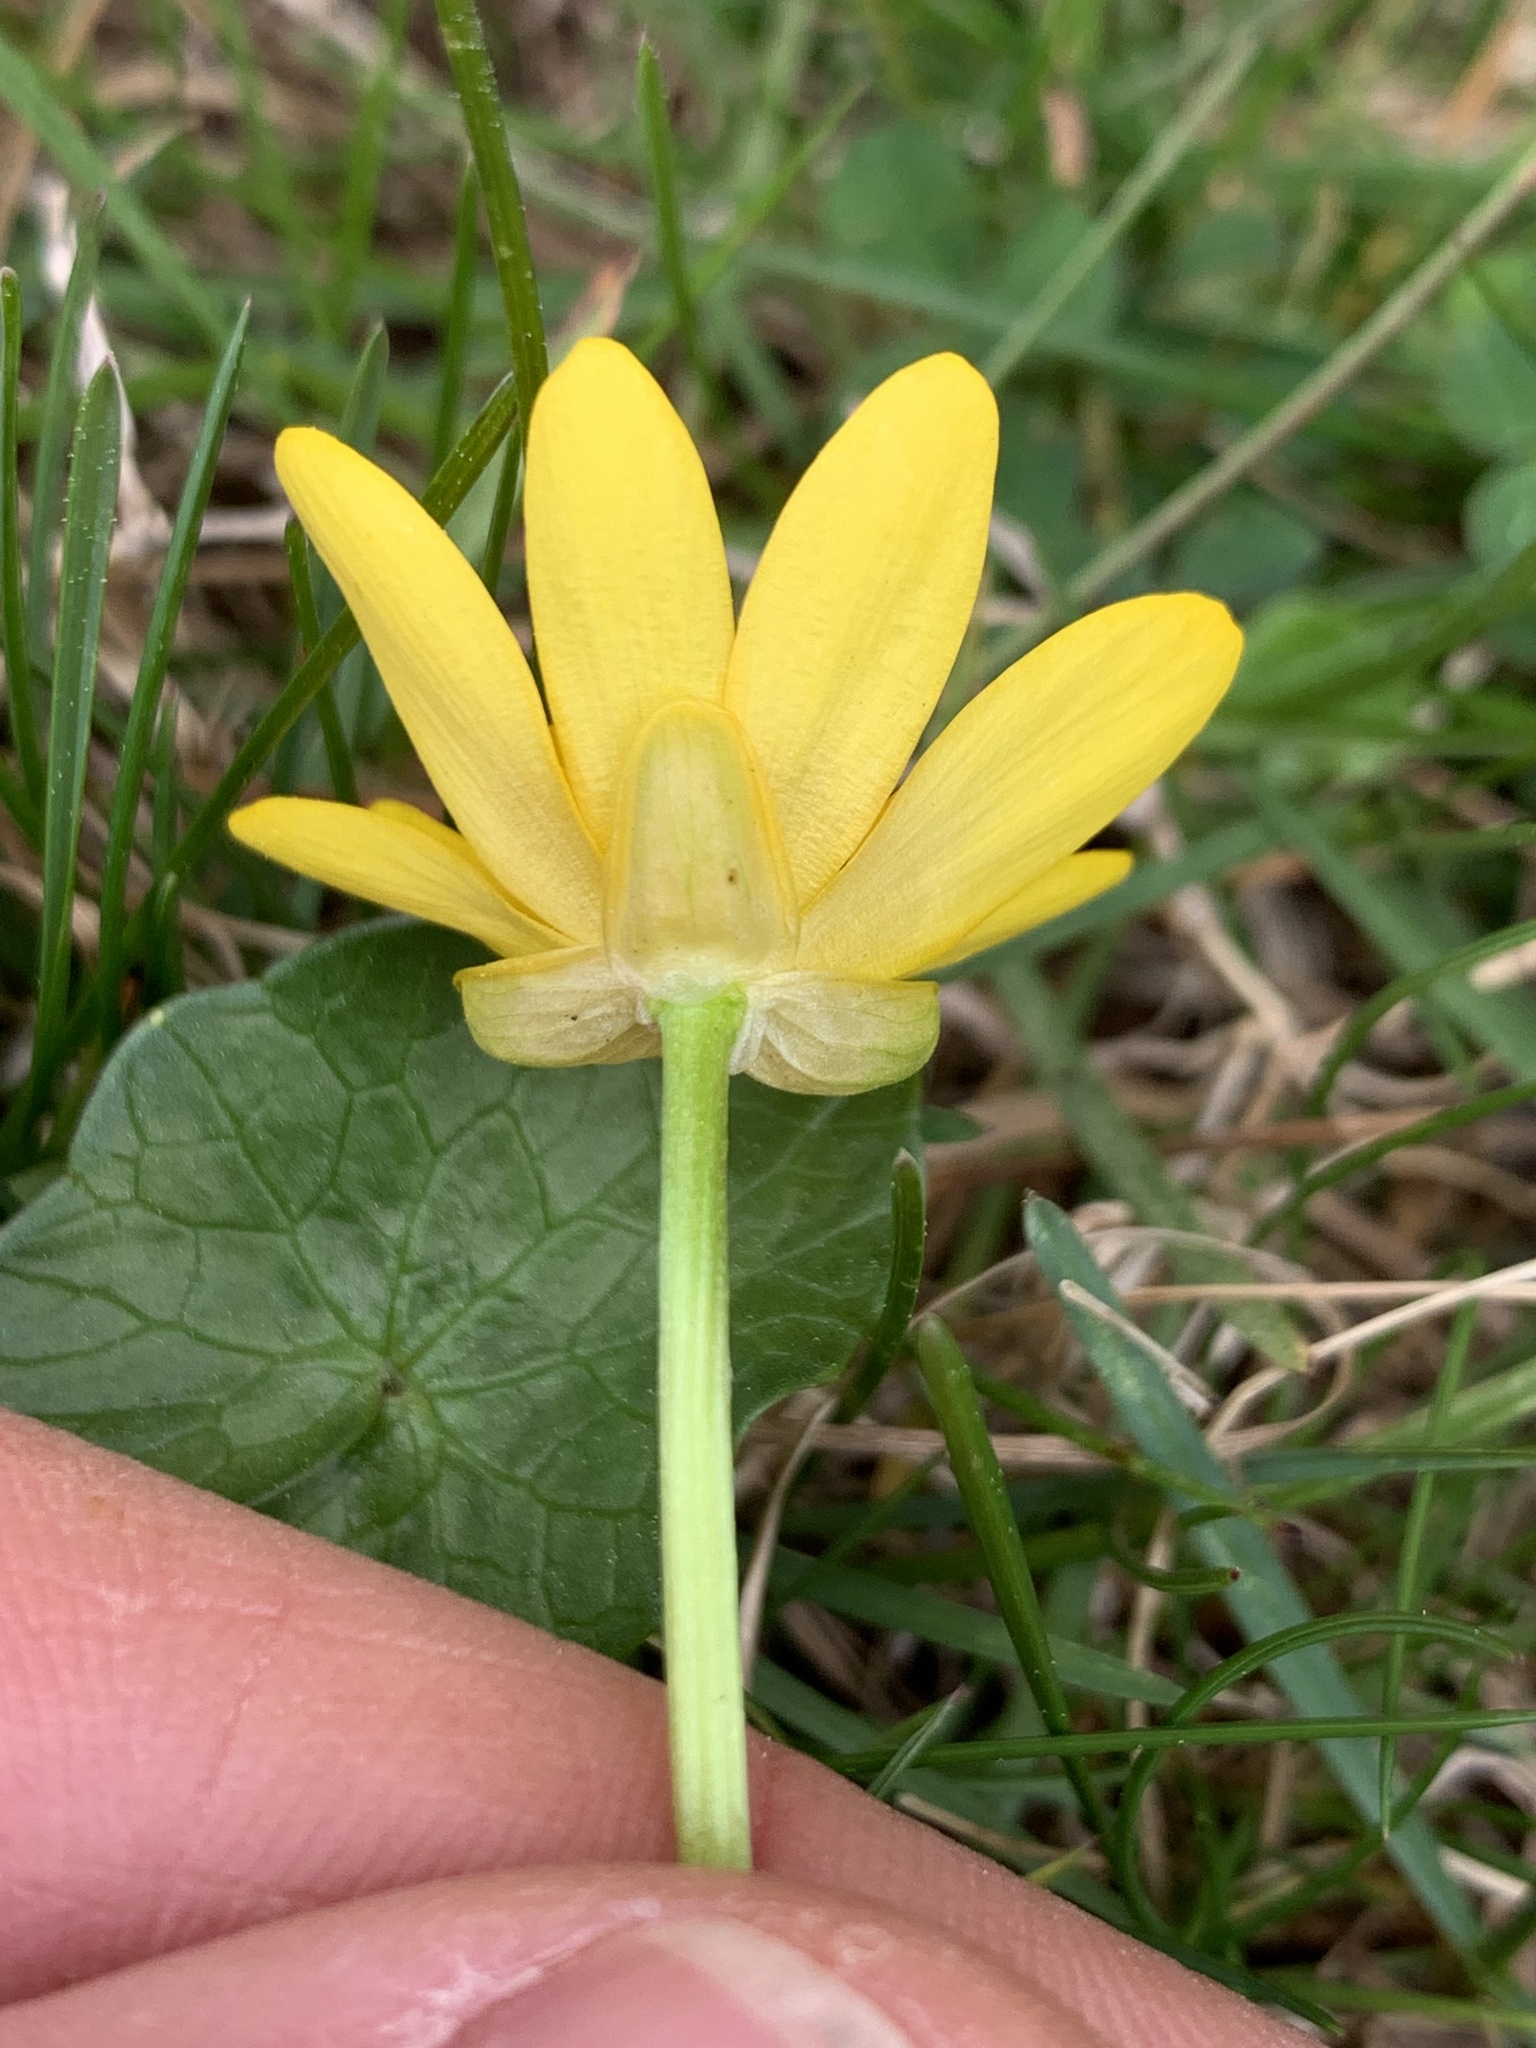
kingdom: Plantae
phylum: Tracheophyta
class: Magnoliopsida
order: Ranunculales
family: Ranunculaceae
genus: Ficaria
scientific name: Ficaria verna
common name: Lesser celandine
